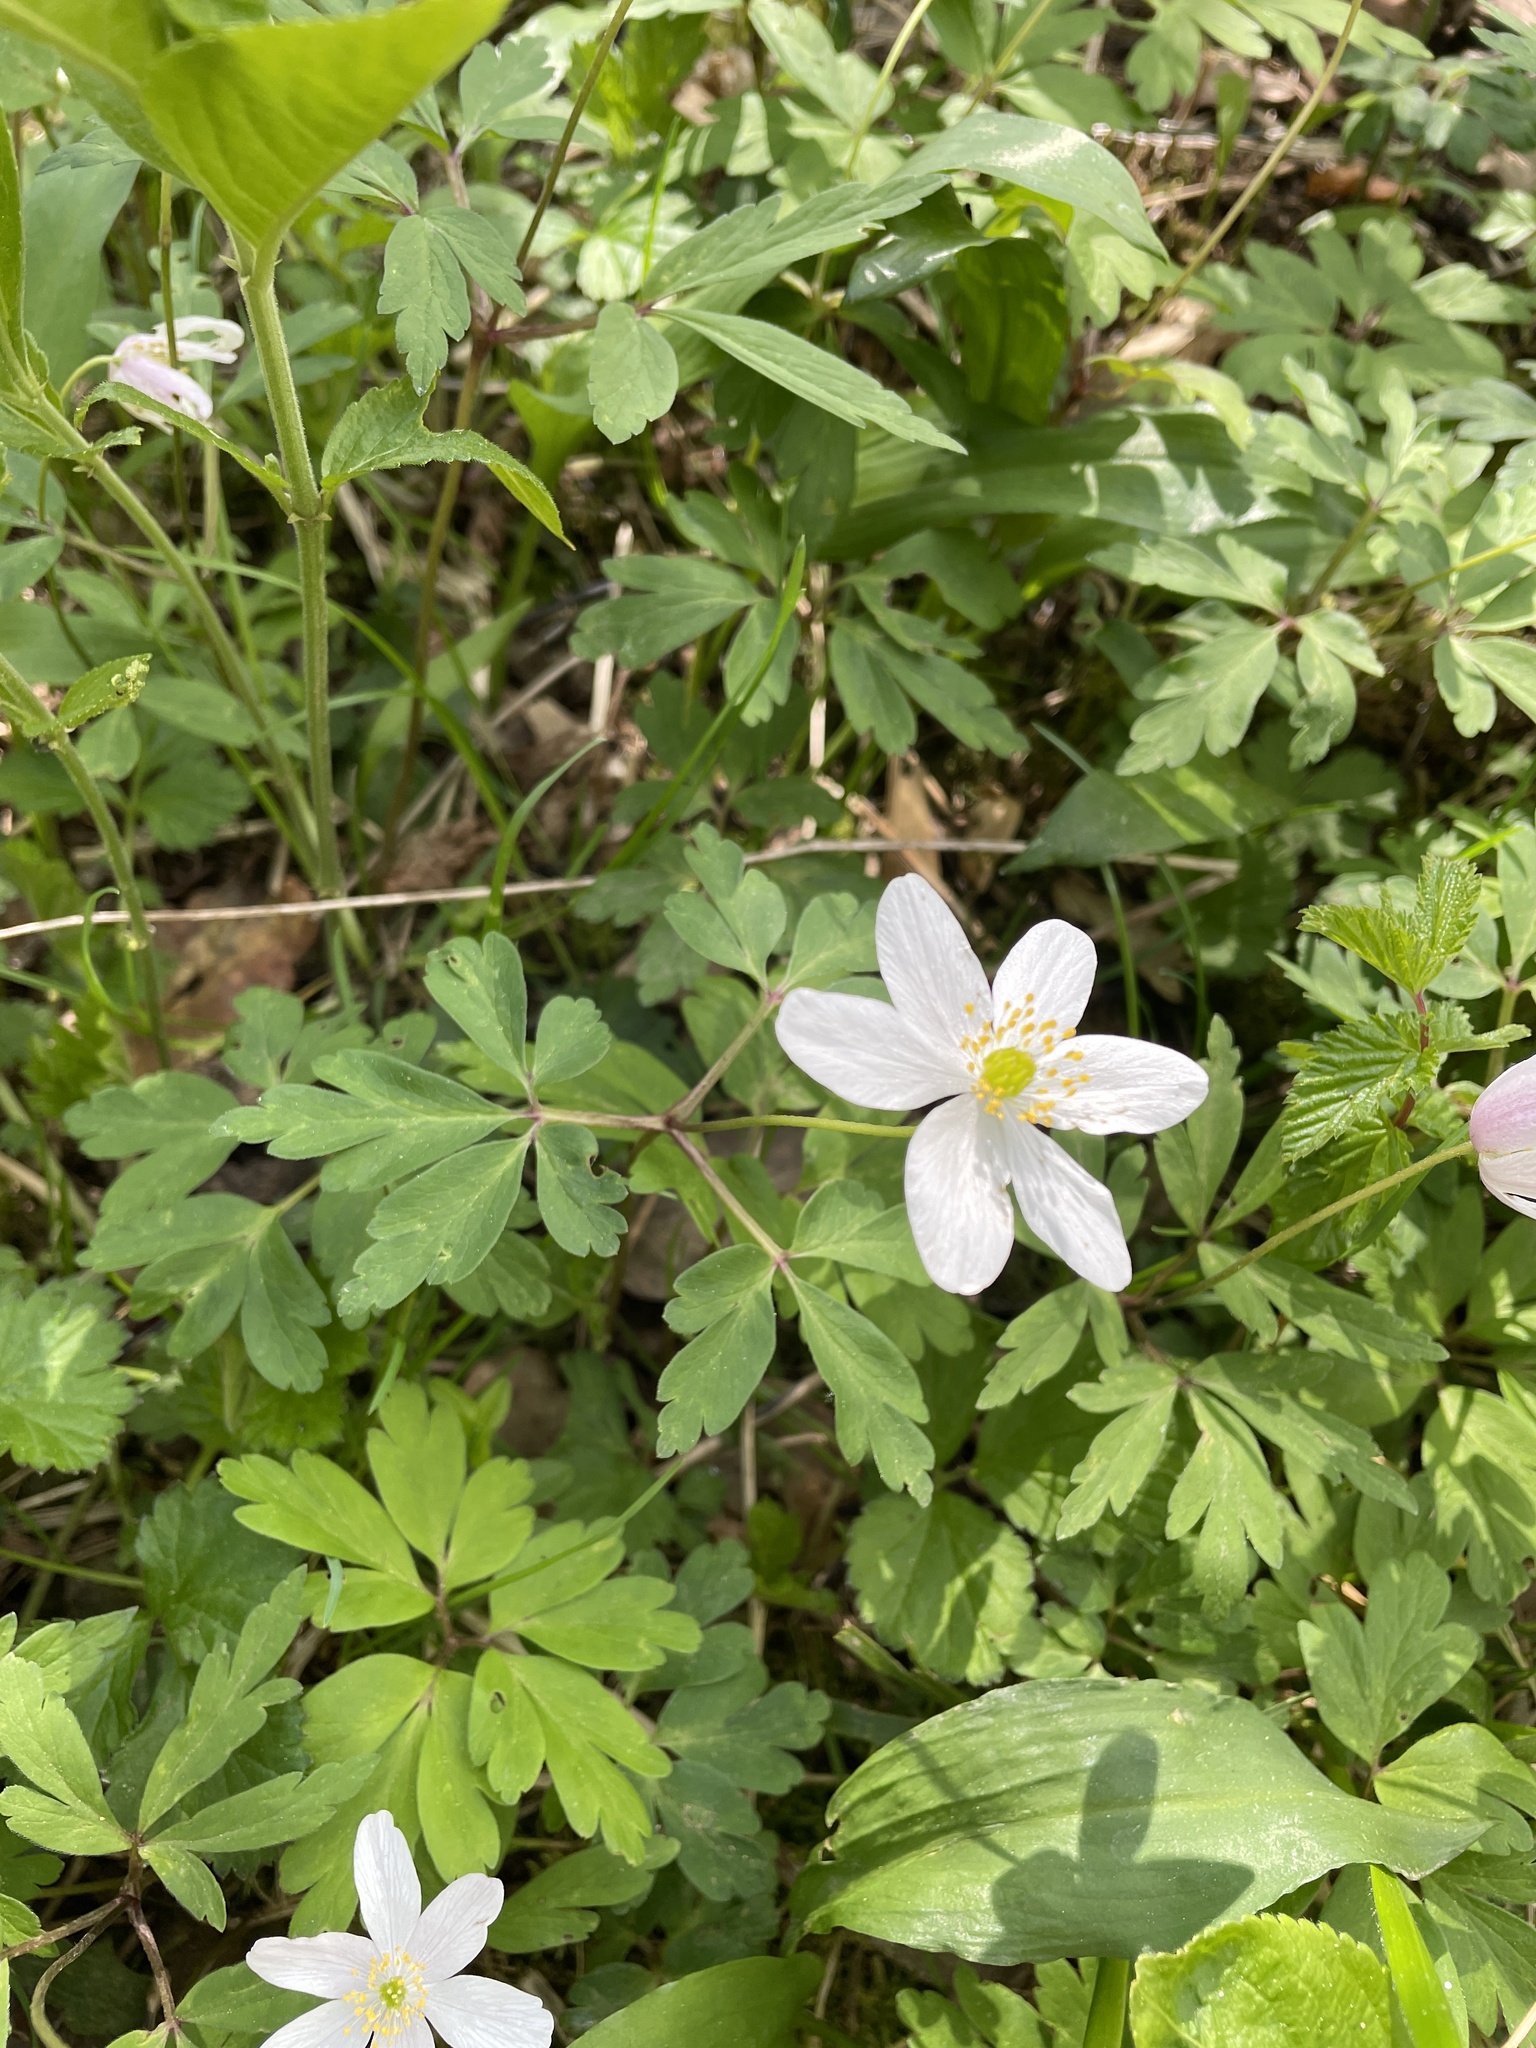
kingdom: Plantae
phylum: Tracheophyta
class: Magnoliopsida
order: Ranunculales
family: Ranunculaceae
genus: Anemone
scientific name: Anemone nemorosa
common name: Wood anemone
